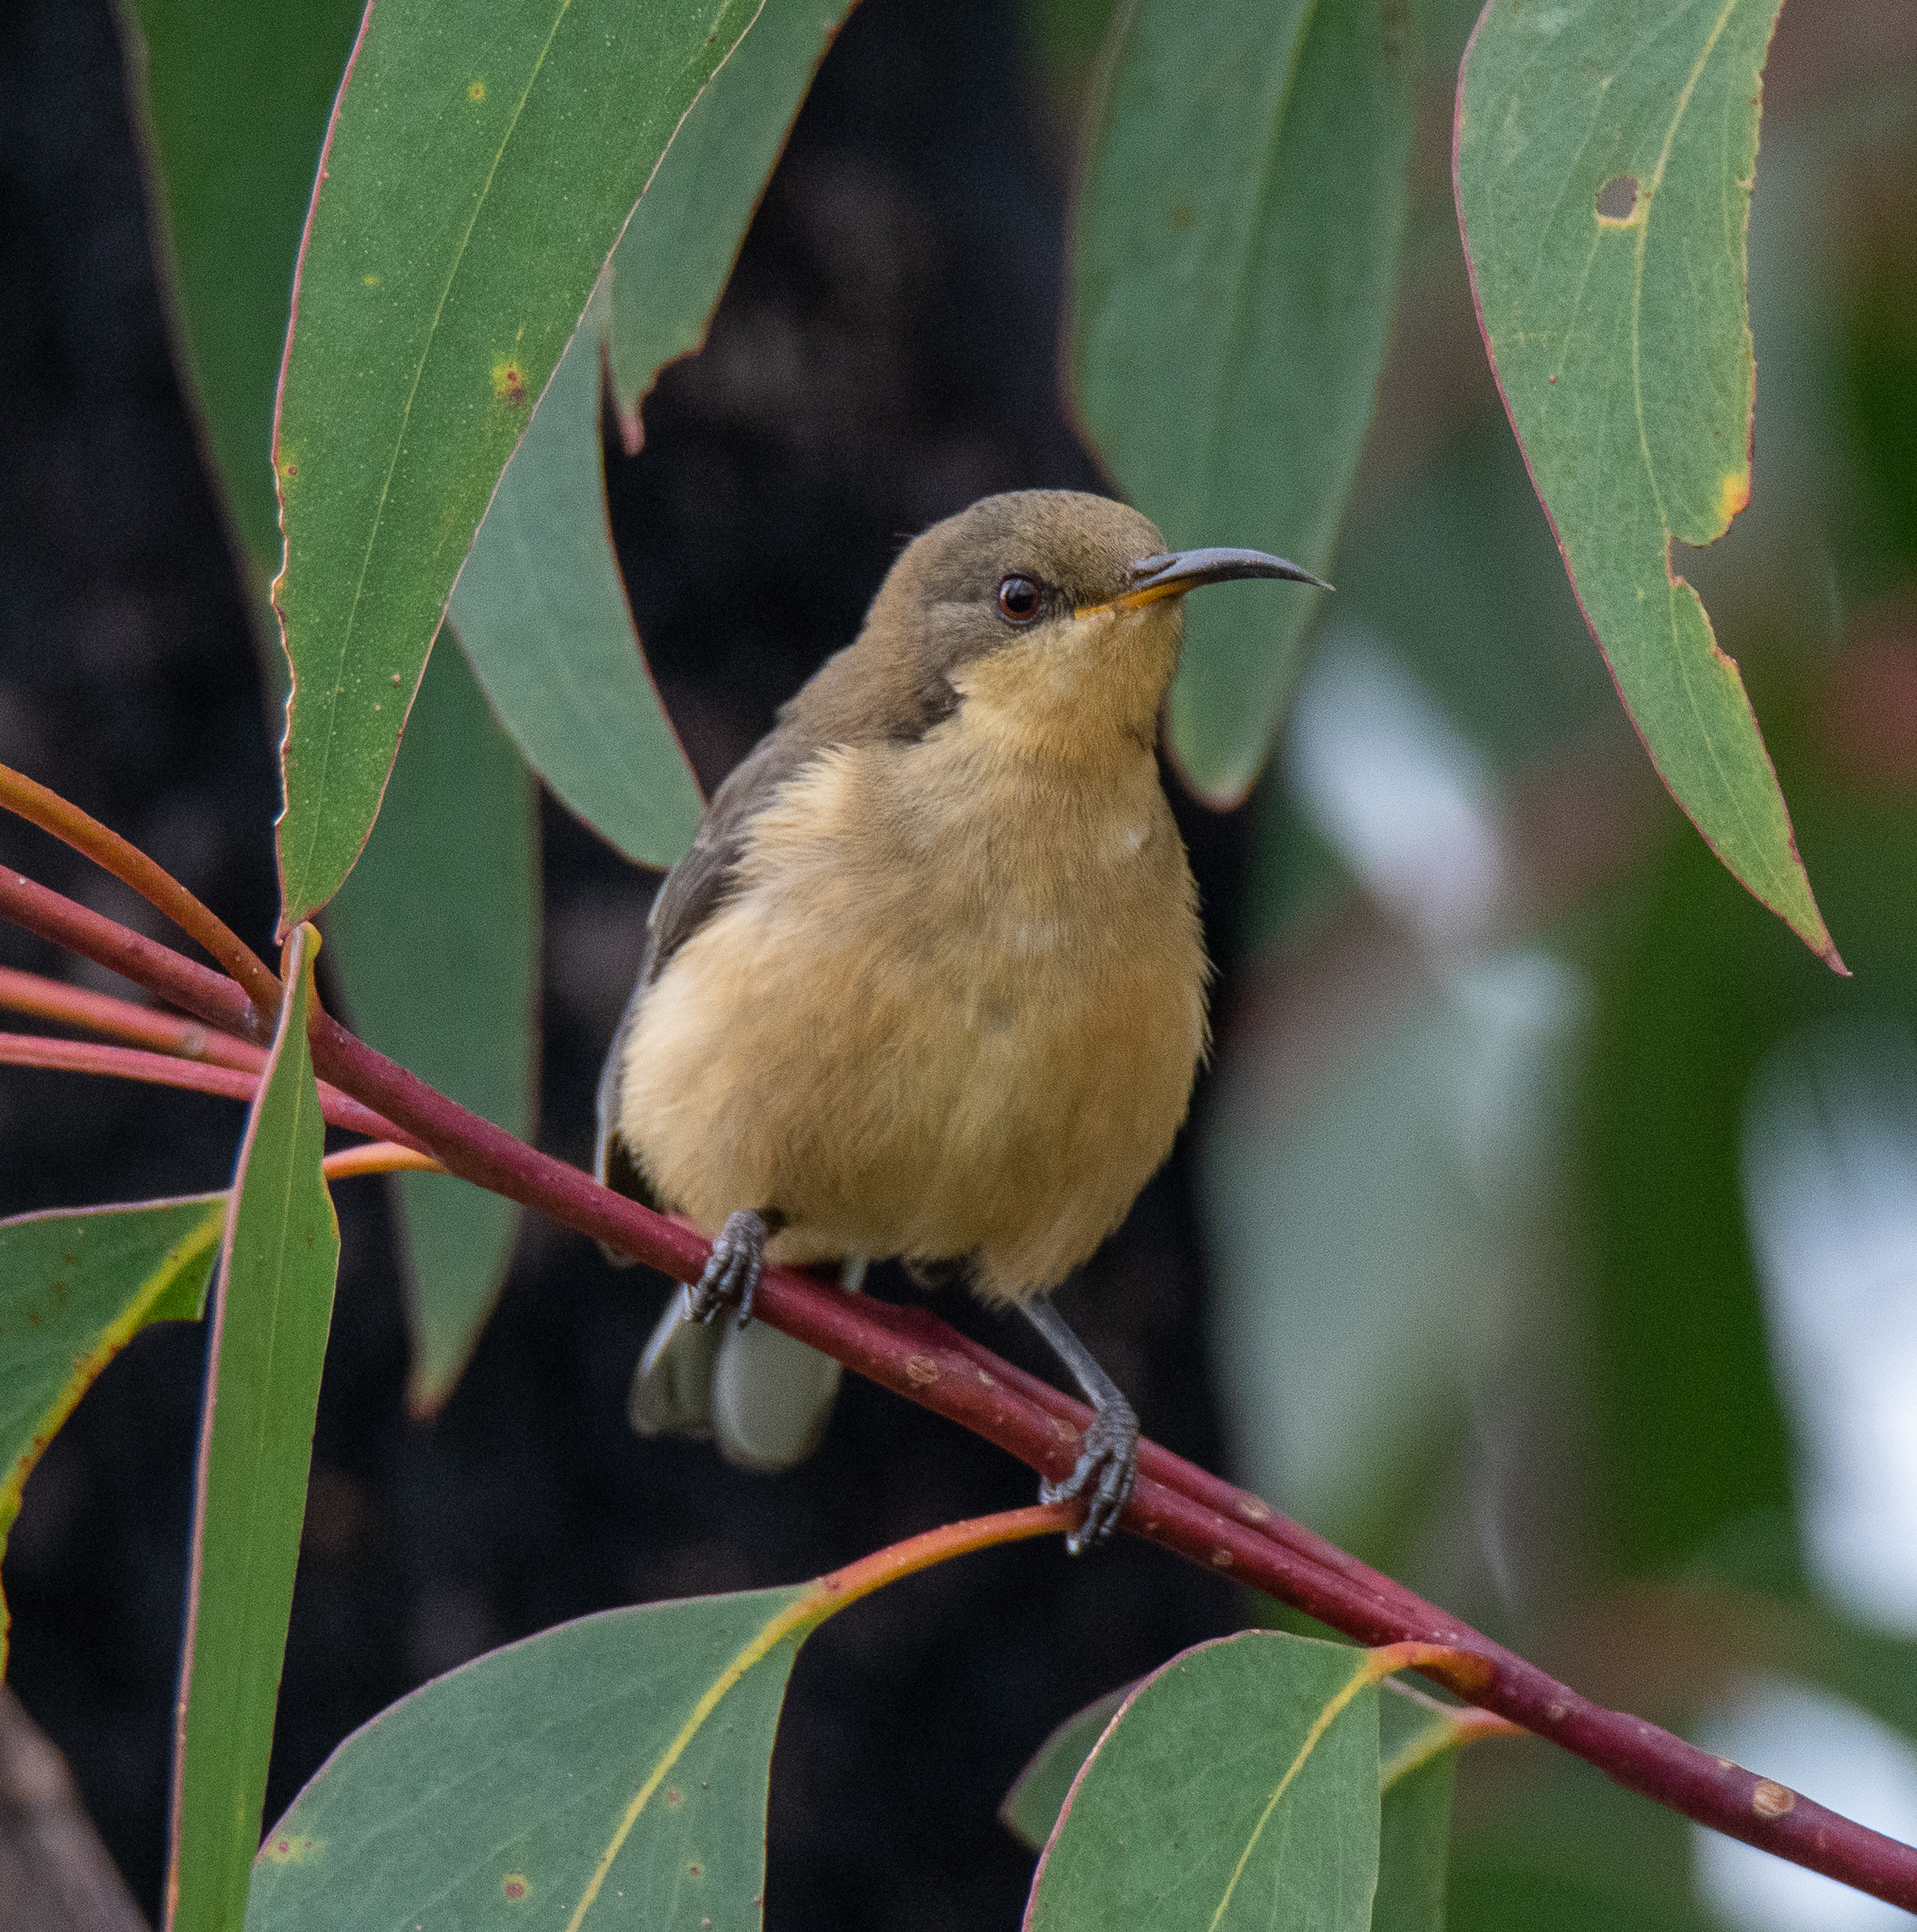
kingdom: Animalia
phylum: Chordata
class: Aves
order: Passeriformes
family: Meliphagidae
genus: Acanthorhynchus
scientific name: Acanthorhynchus tenuirostris
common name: Eastern spinebill
